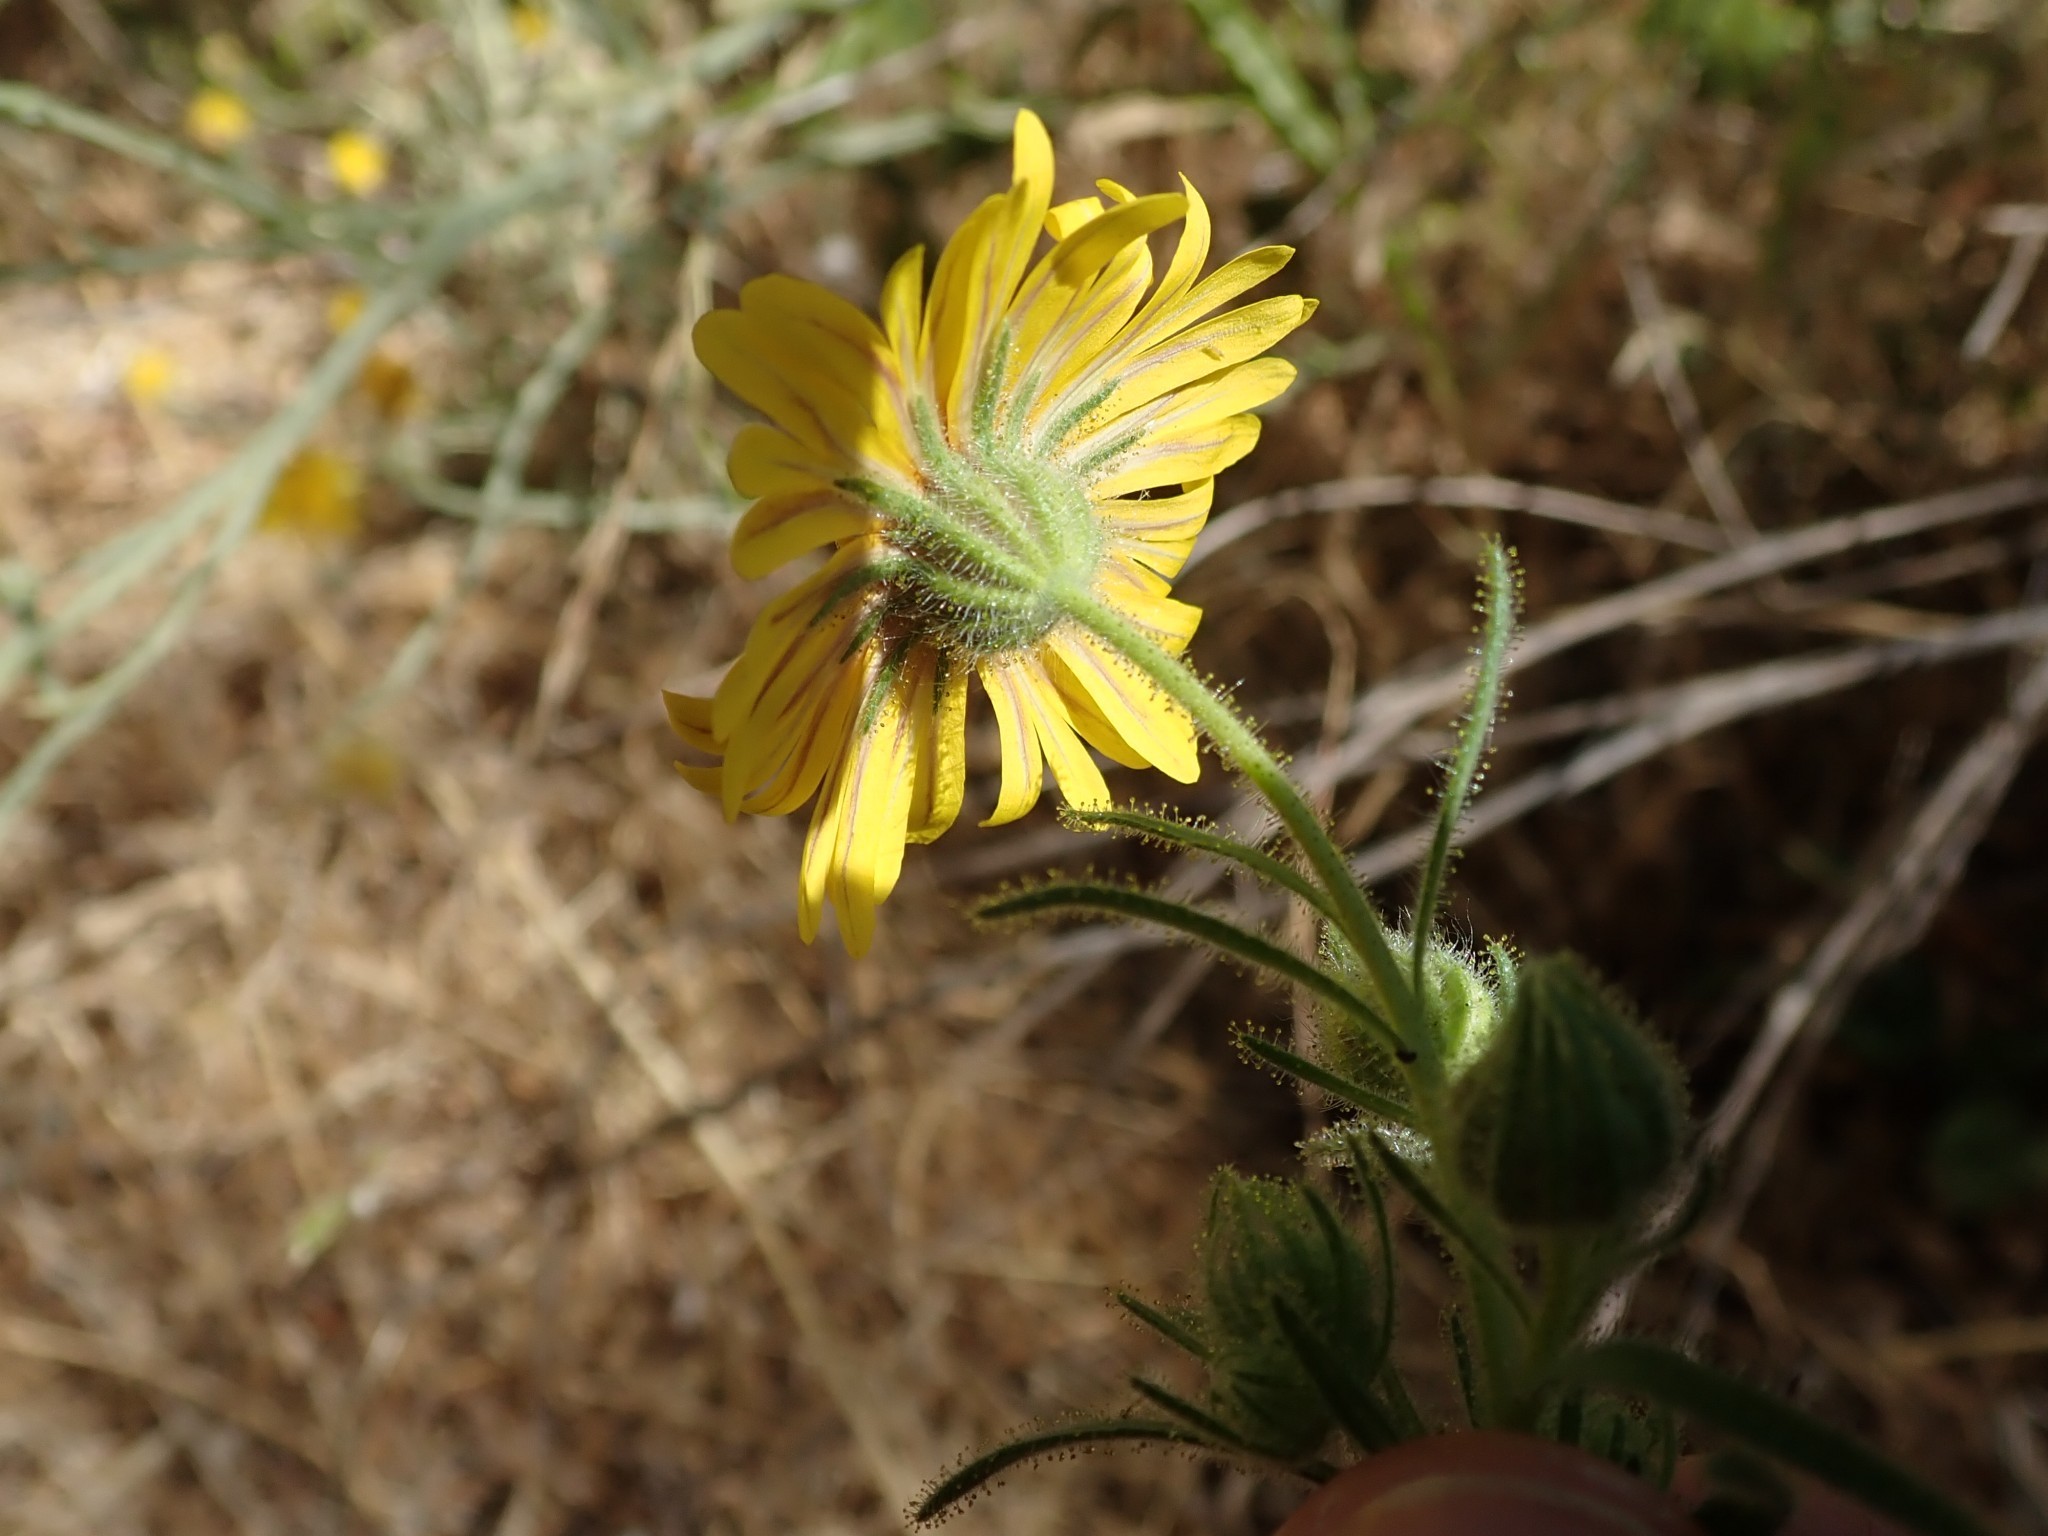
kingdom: Plantae
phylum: Tracheophyta
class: Magnoliopsida
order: Asterales
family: Asteraceae
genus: Madia
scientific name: Madia elegans
